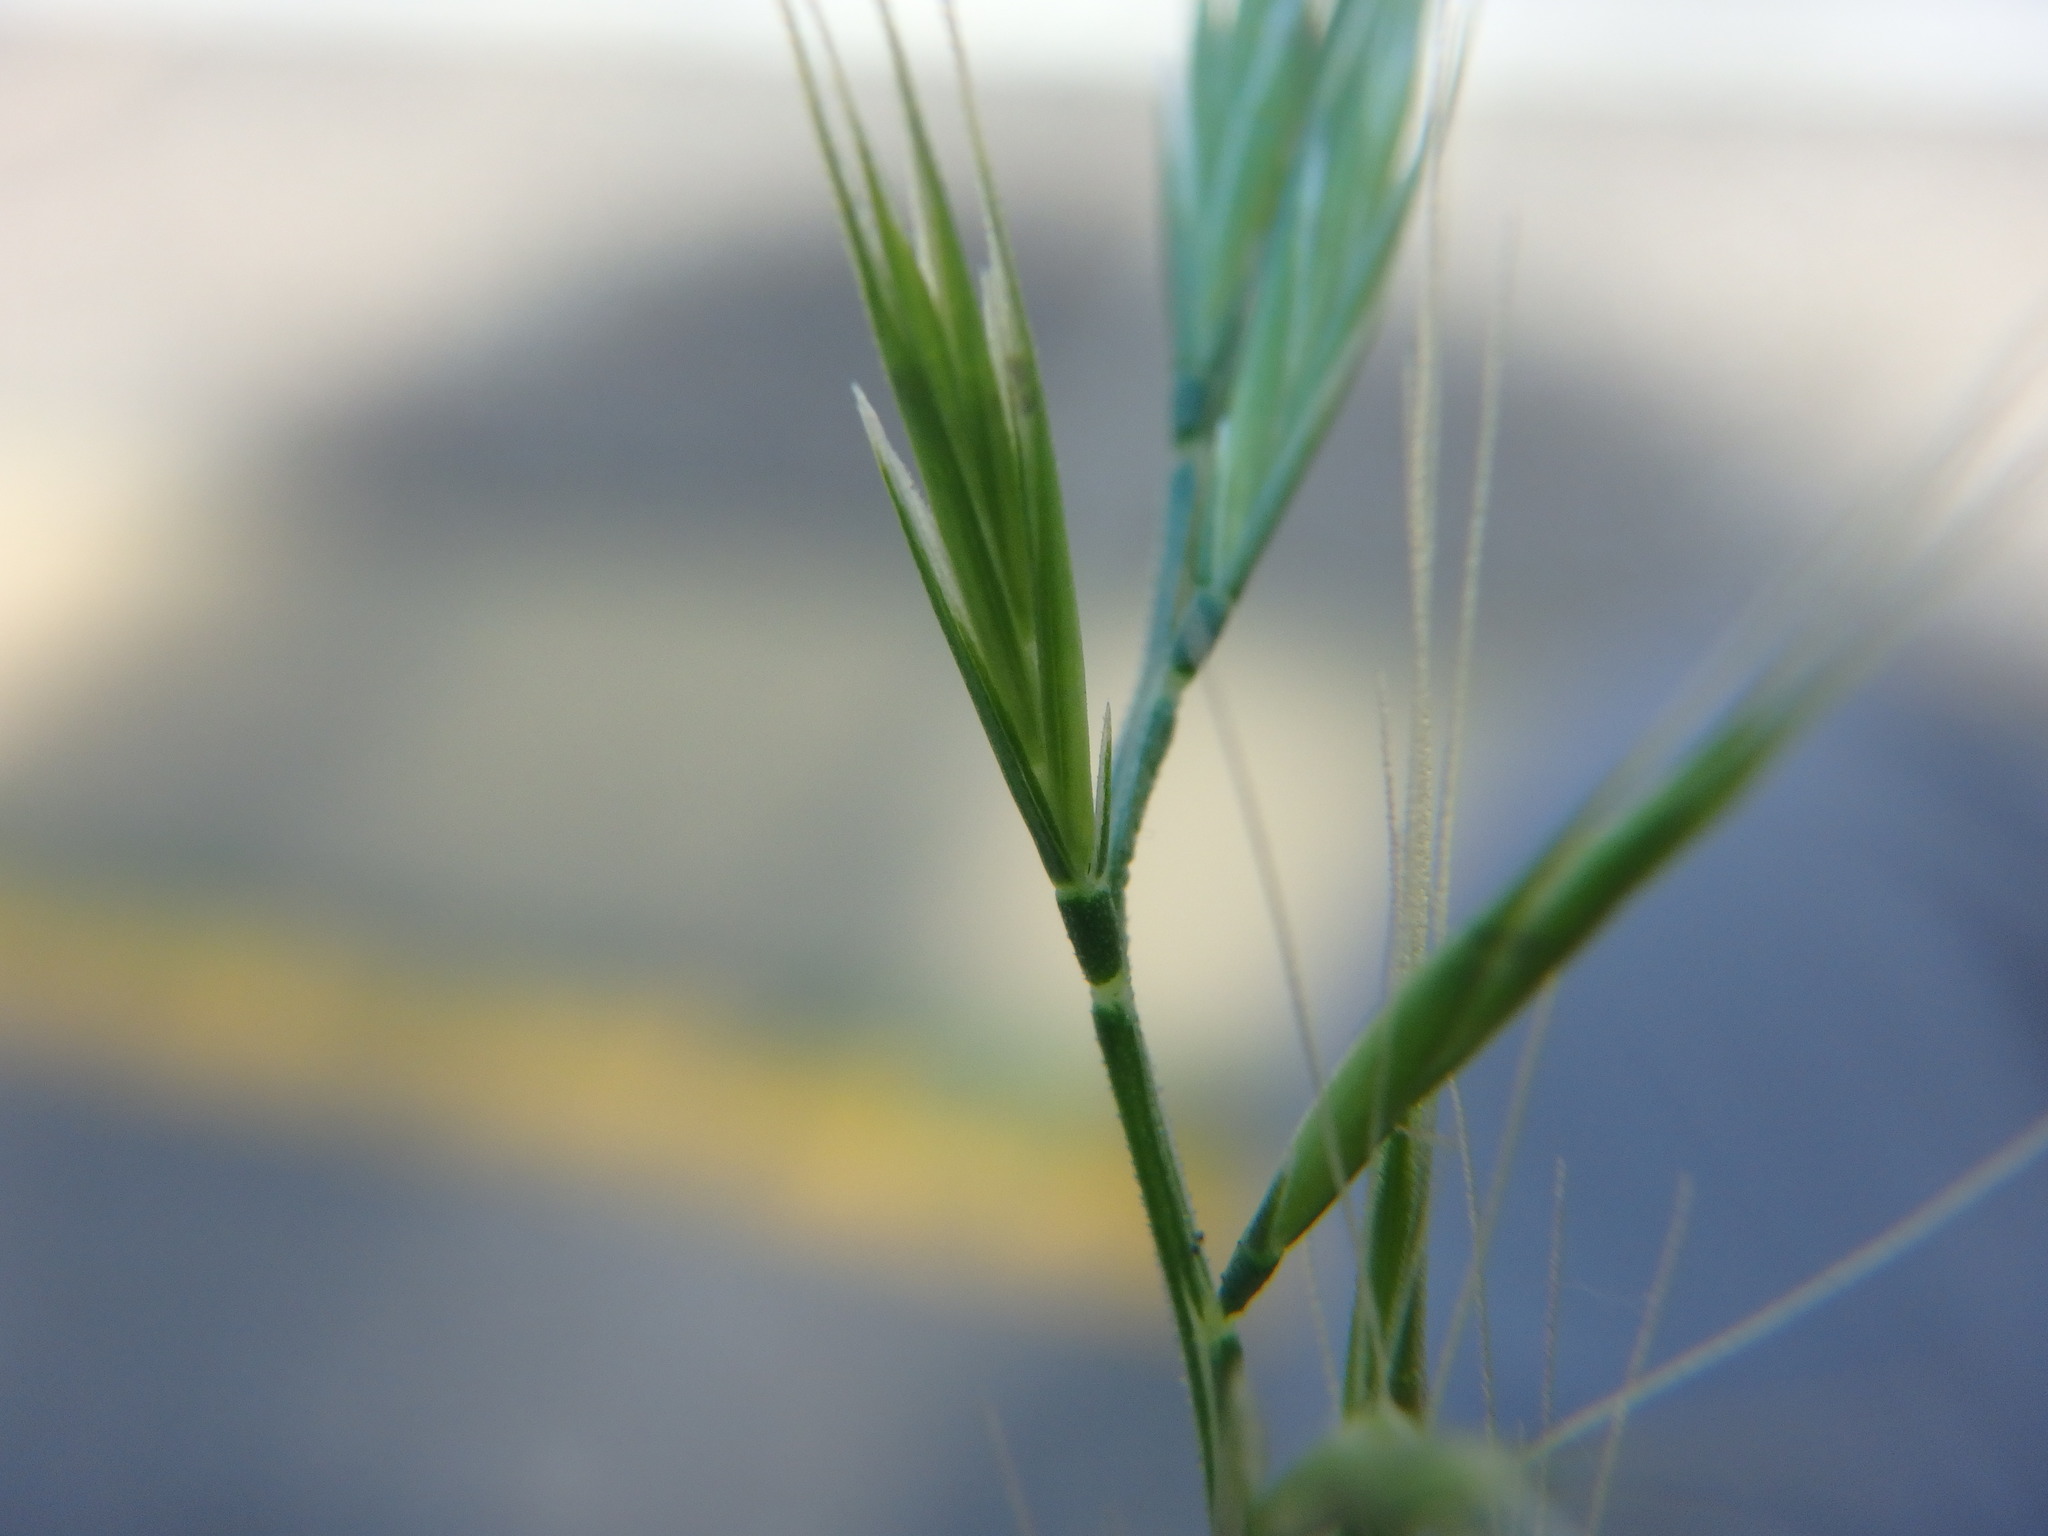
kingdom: Plantae
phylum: Tracheophyta
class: Liliopsida
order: Poales
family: Poaceae
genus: Festuca
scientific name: Festuca myuros
